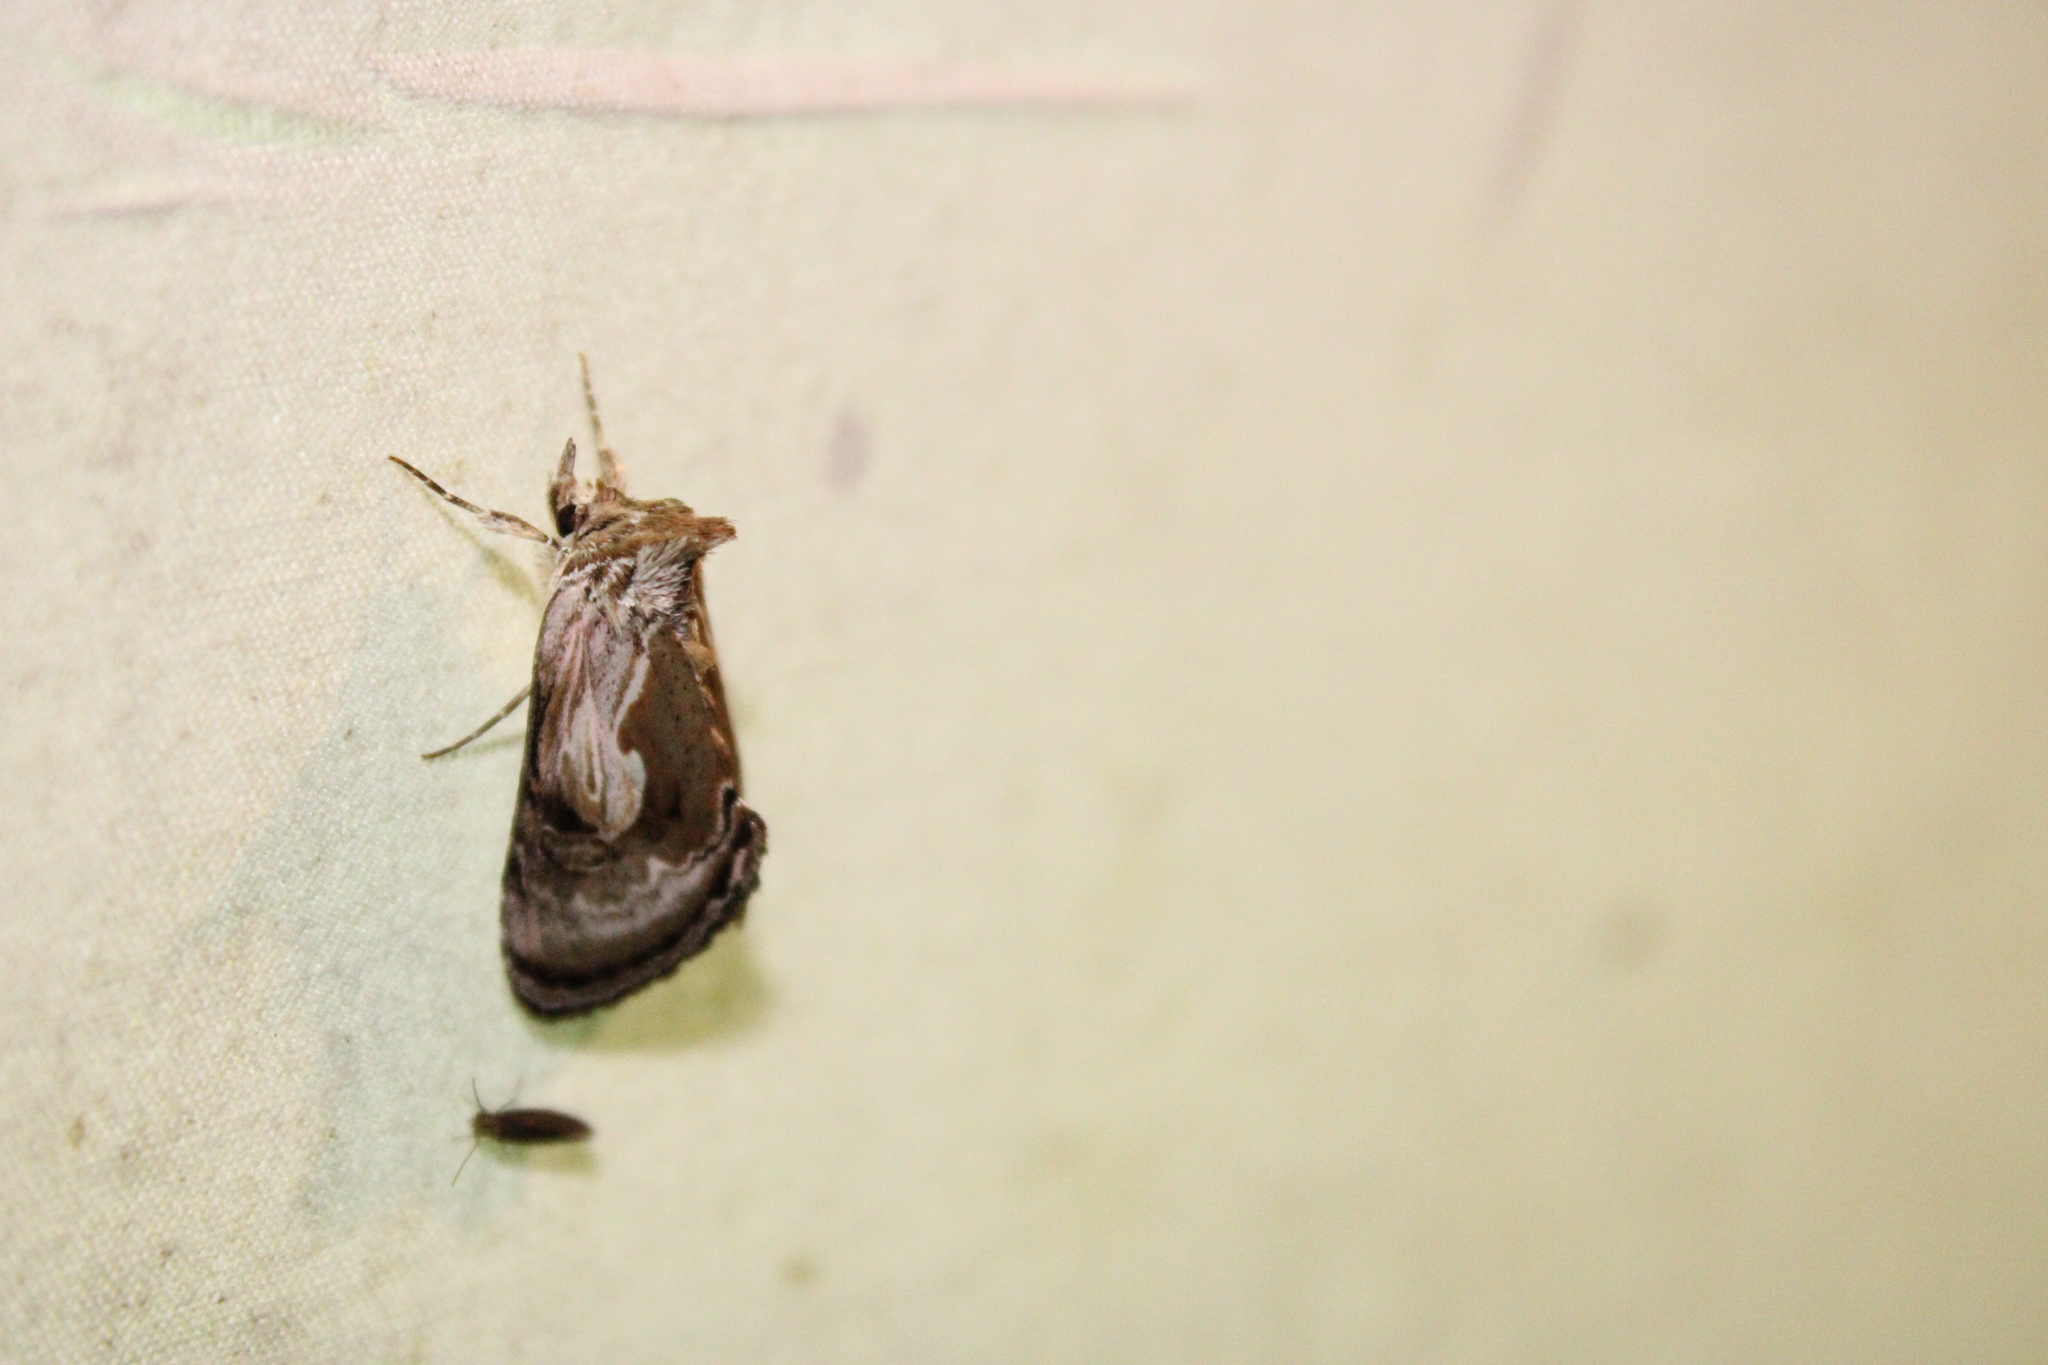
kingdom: Animalia
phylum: Arthropoda
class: Insecta
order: Lepidoptera
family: Noctuidae
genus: Chrysanympha
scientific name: Chrysanympha formosa
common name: Formosa looper moth
